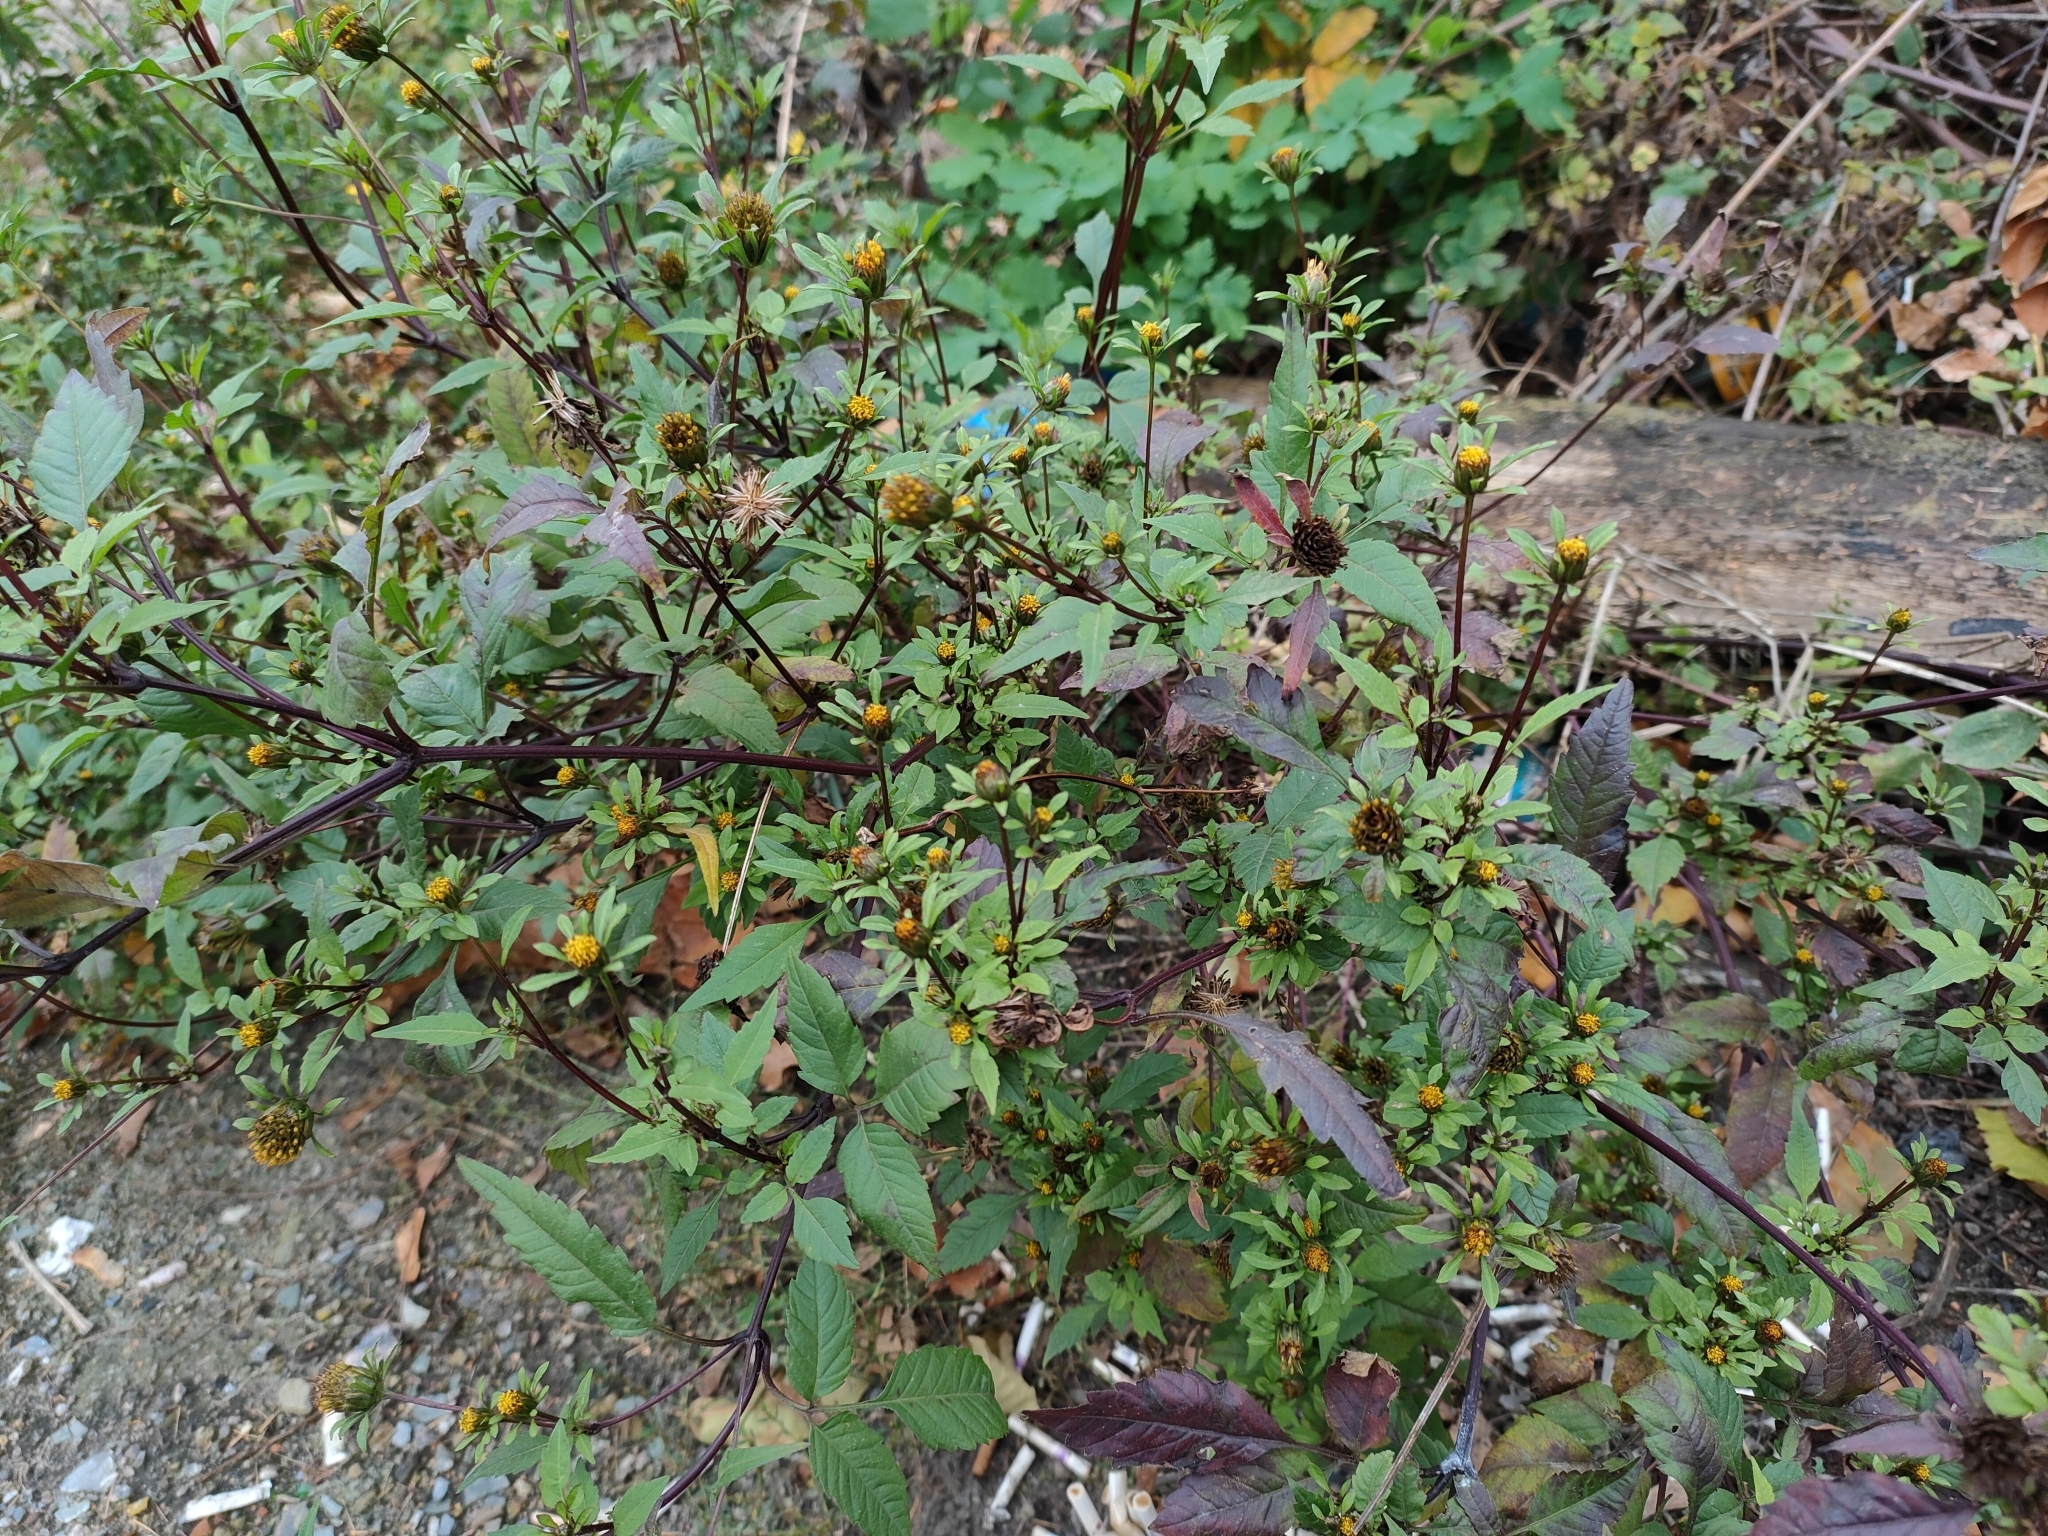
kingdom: Plantae
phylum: Tracheophyta
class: Magnoliopsida
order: Asterales
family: Asteraceae
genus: Bidens
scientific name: Bidens frondosa
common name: Beggarticks
